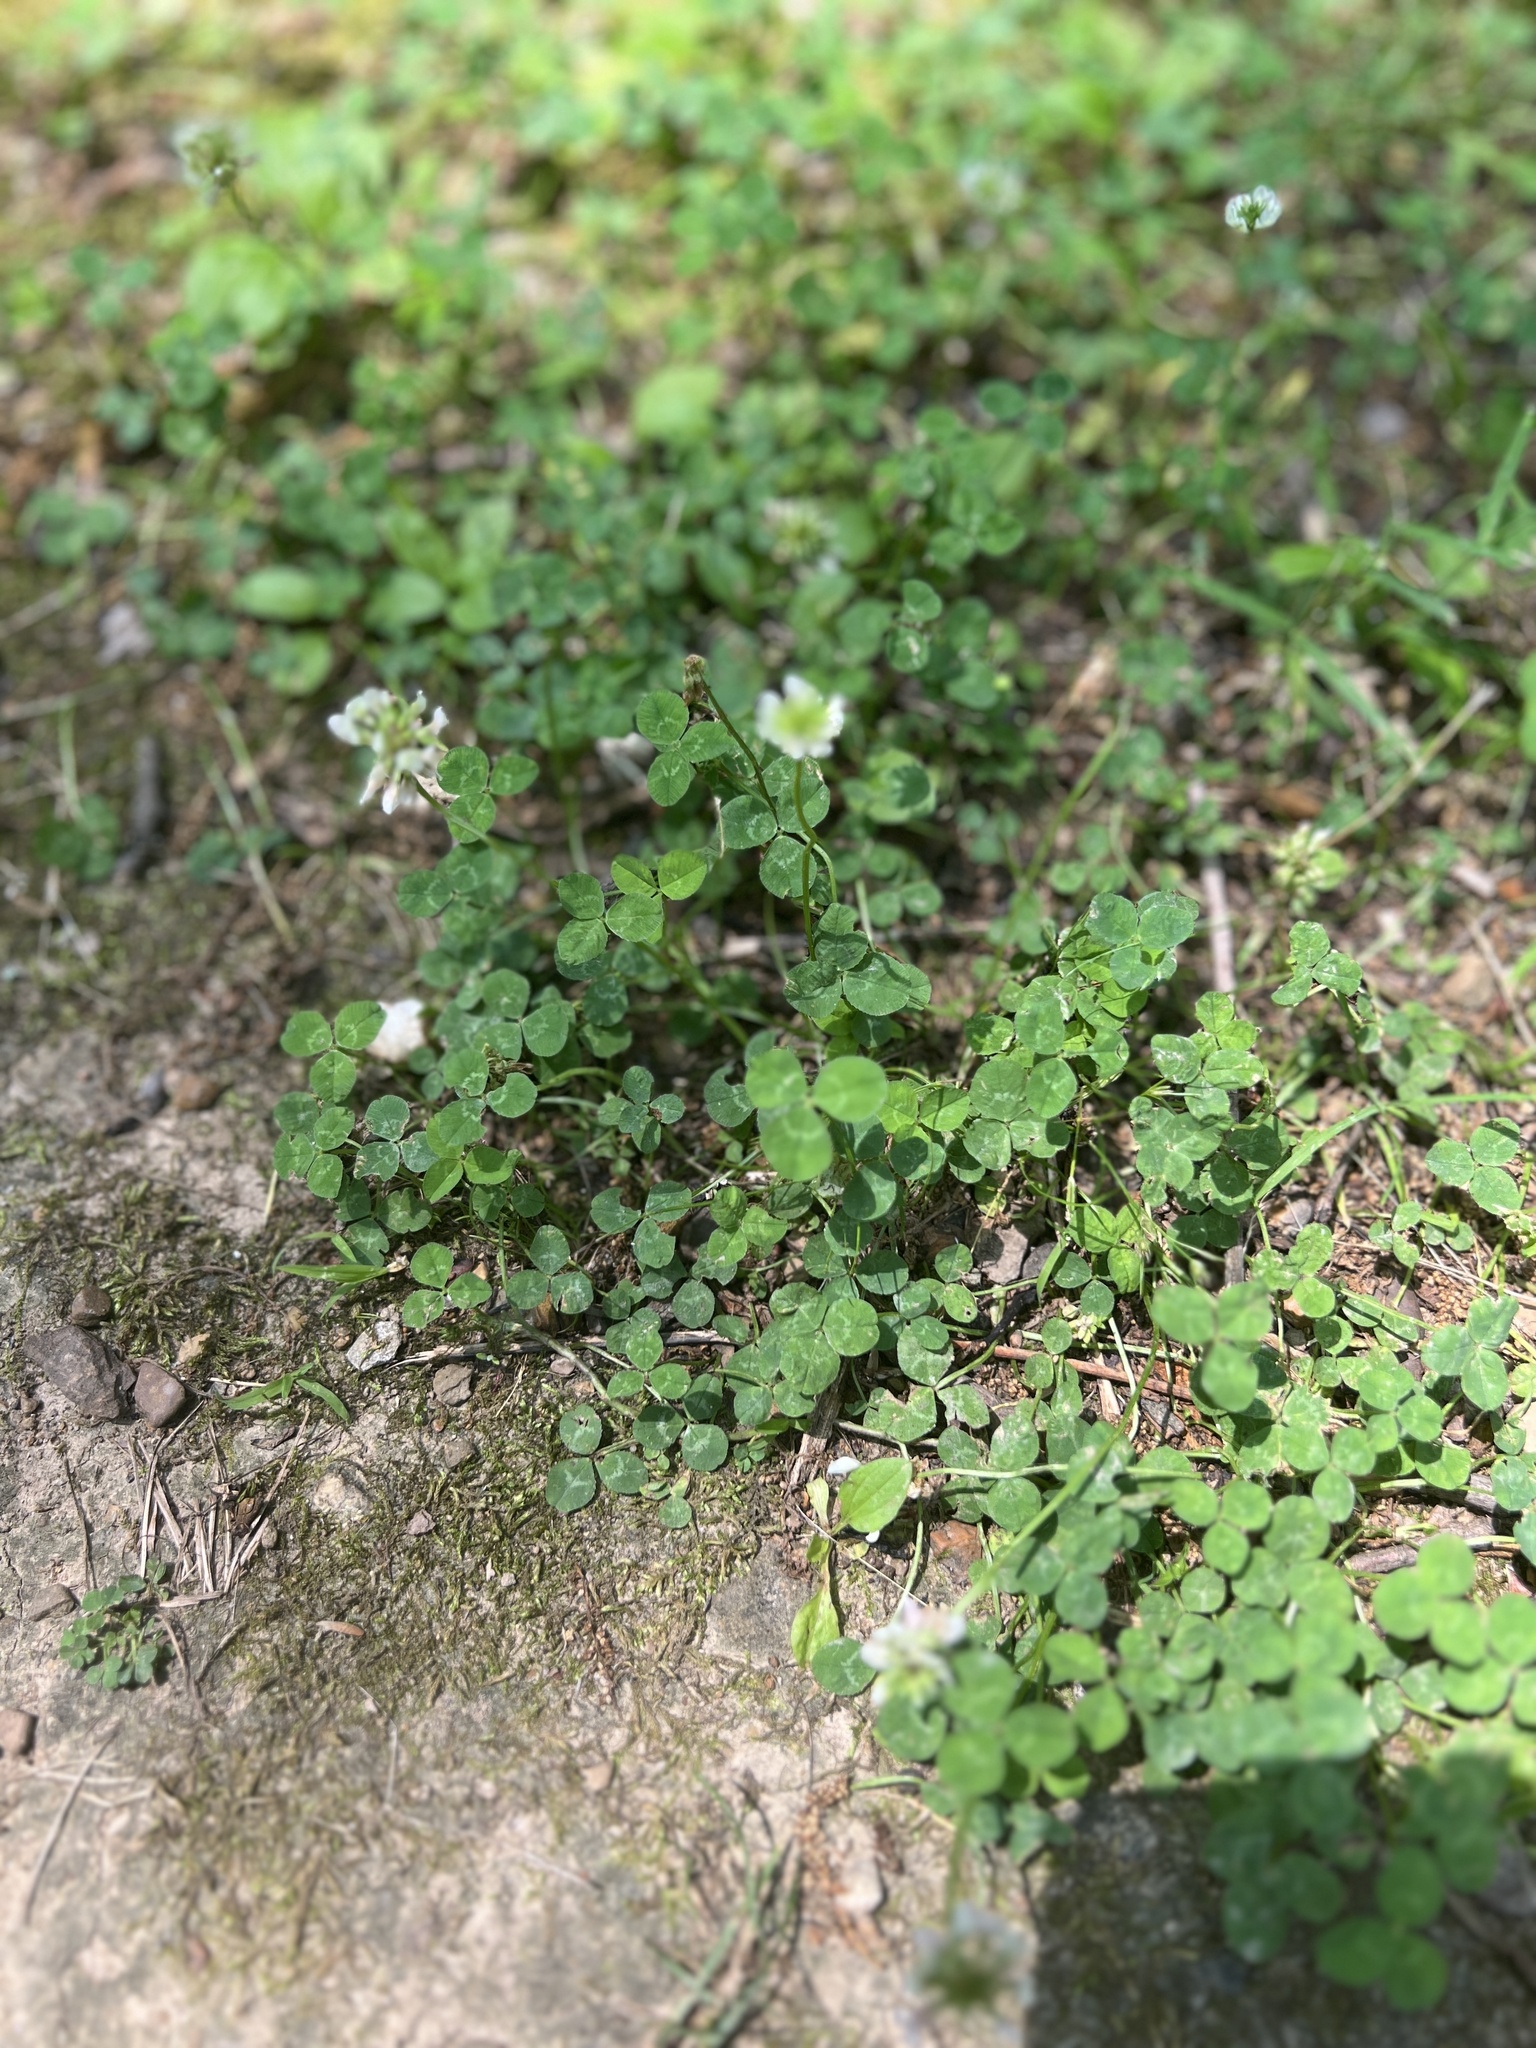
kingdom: Plantae
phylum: Tracheophyta
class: Magnoliopsida
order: Fabales
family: Fabaceae
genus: Trifolium
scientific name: Trifolium repens
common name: White clover
